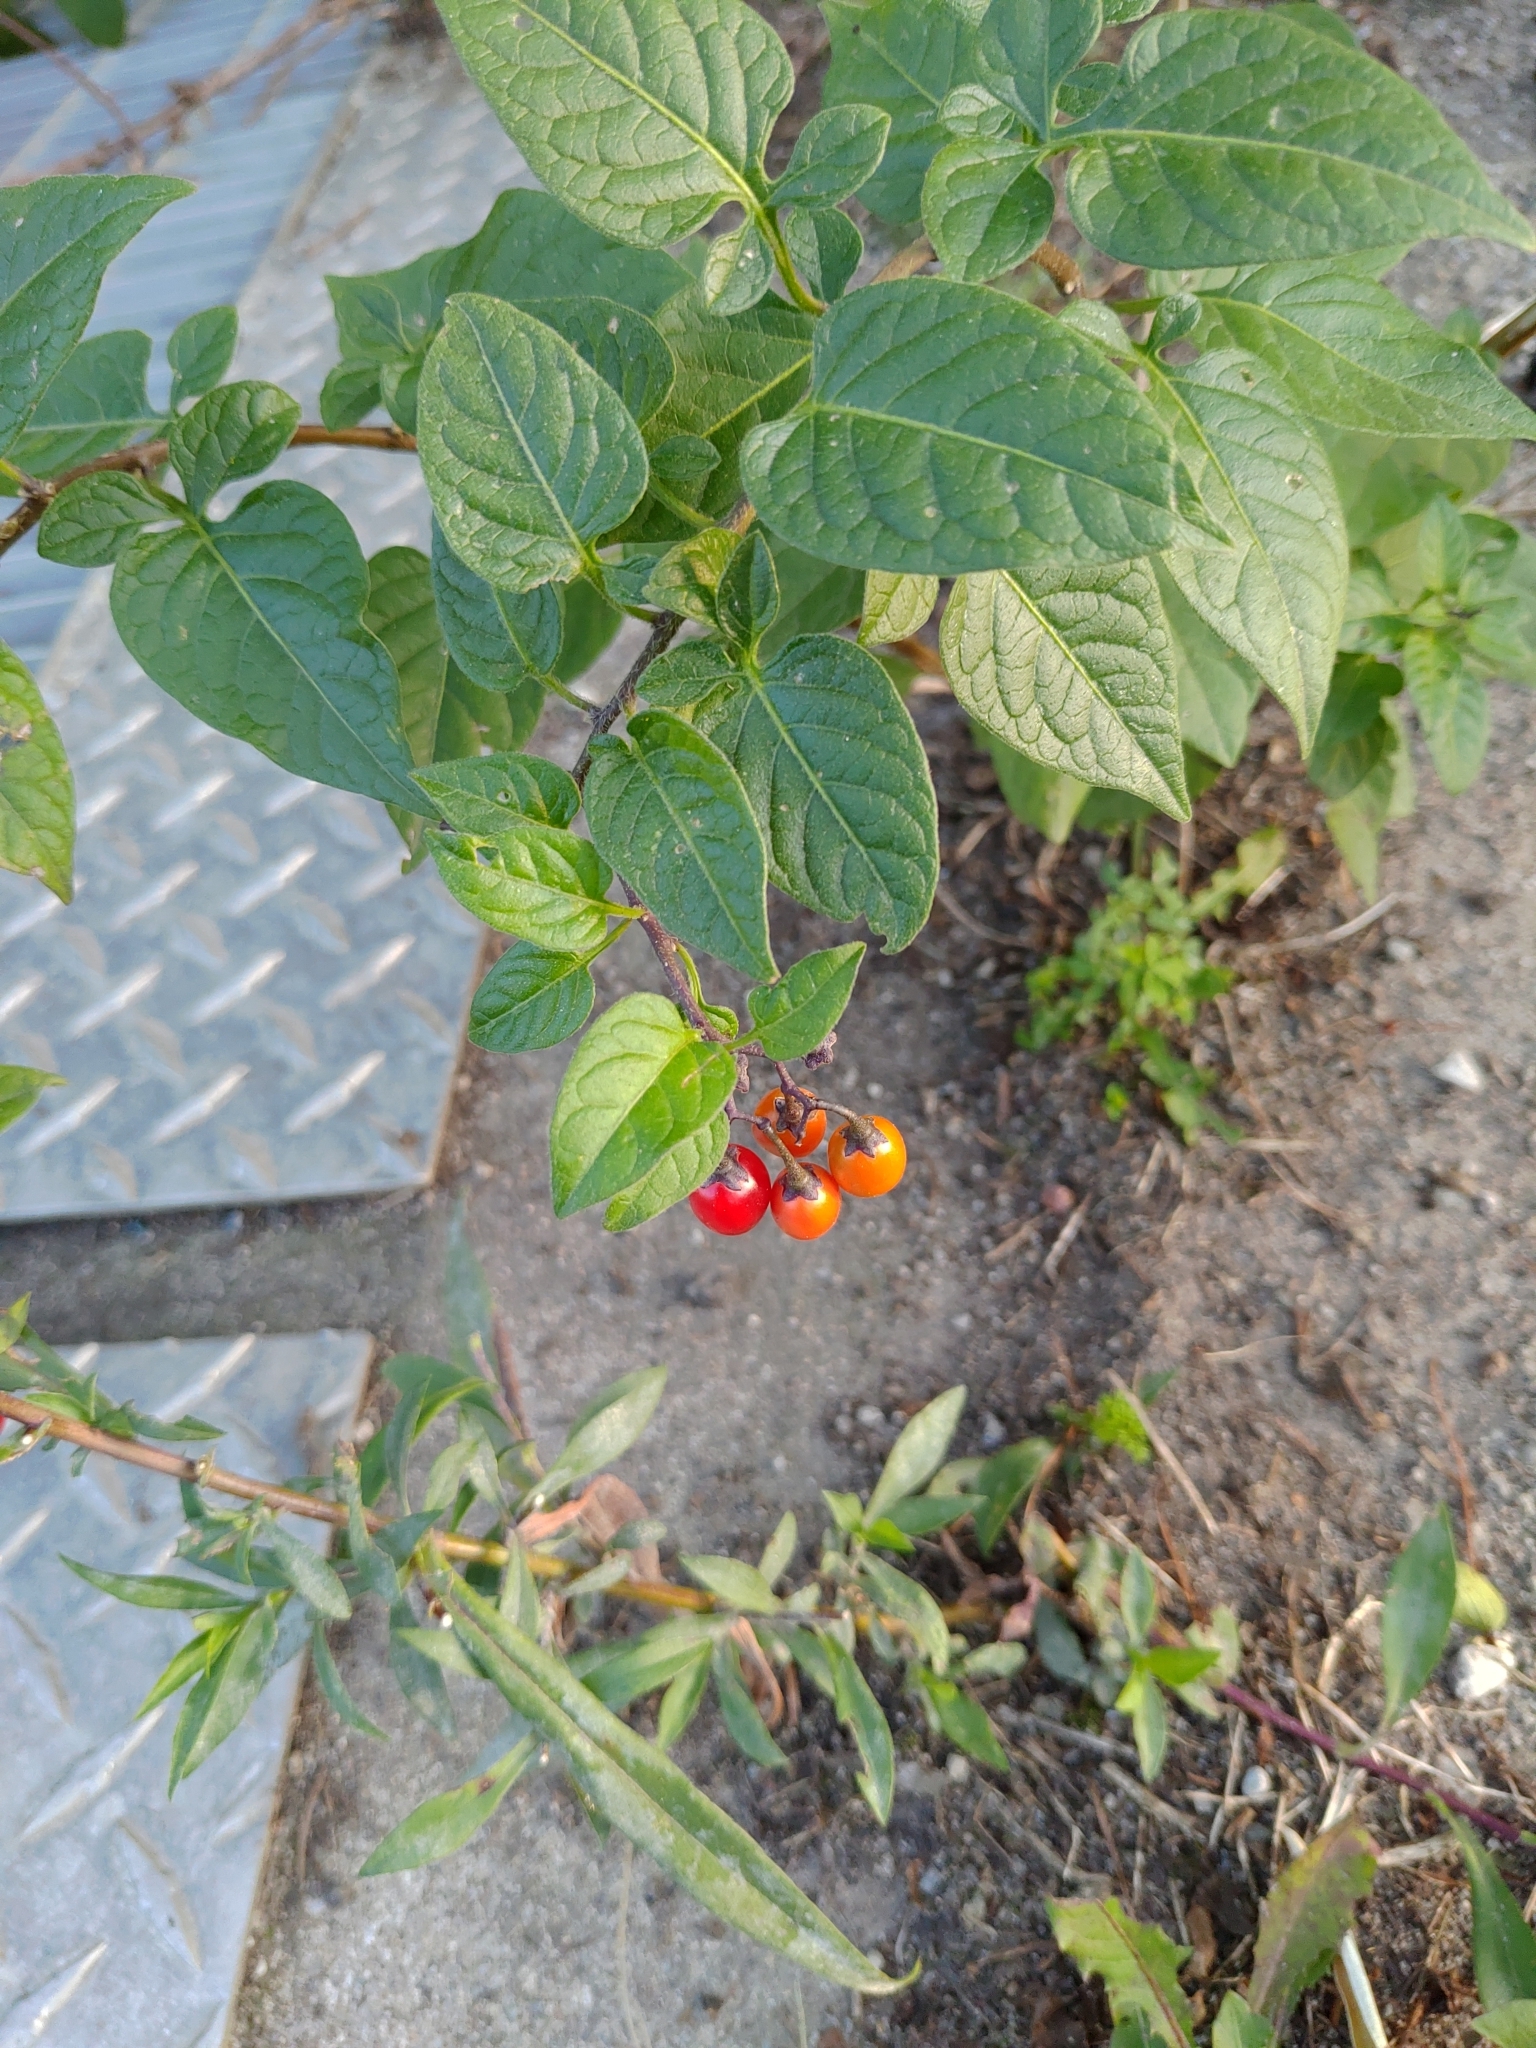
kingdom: Plantae
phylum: Tracheophyta
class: Magnoliopsida
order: Solanales
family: Solanaceae
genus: Solanum
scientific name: Solanum dulcamara
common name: Climbing nightshade
